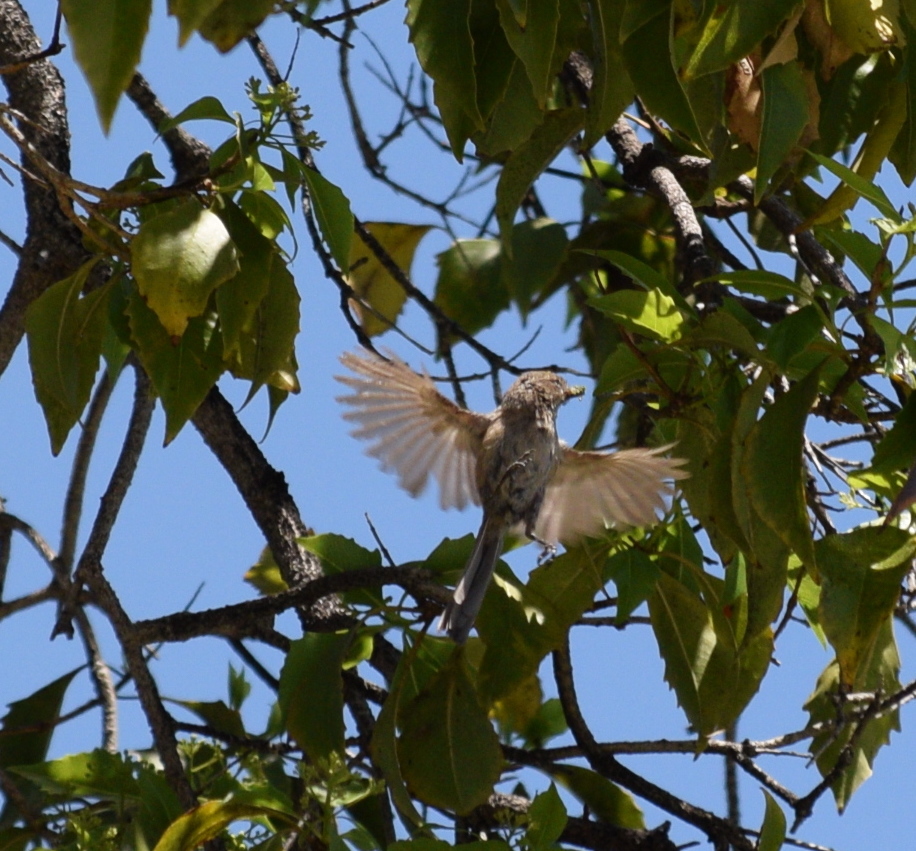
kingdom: Animalia
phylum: Chordata
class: Aves
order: Passeriformes
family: Aegithalidae
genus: Psaltriparus
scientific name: Psaltriparus minimus
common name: American bushtit
